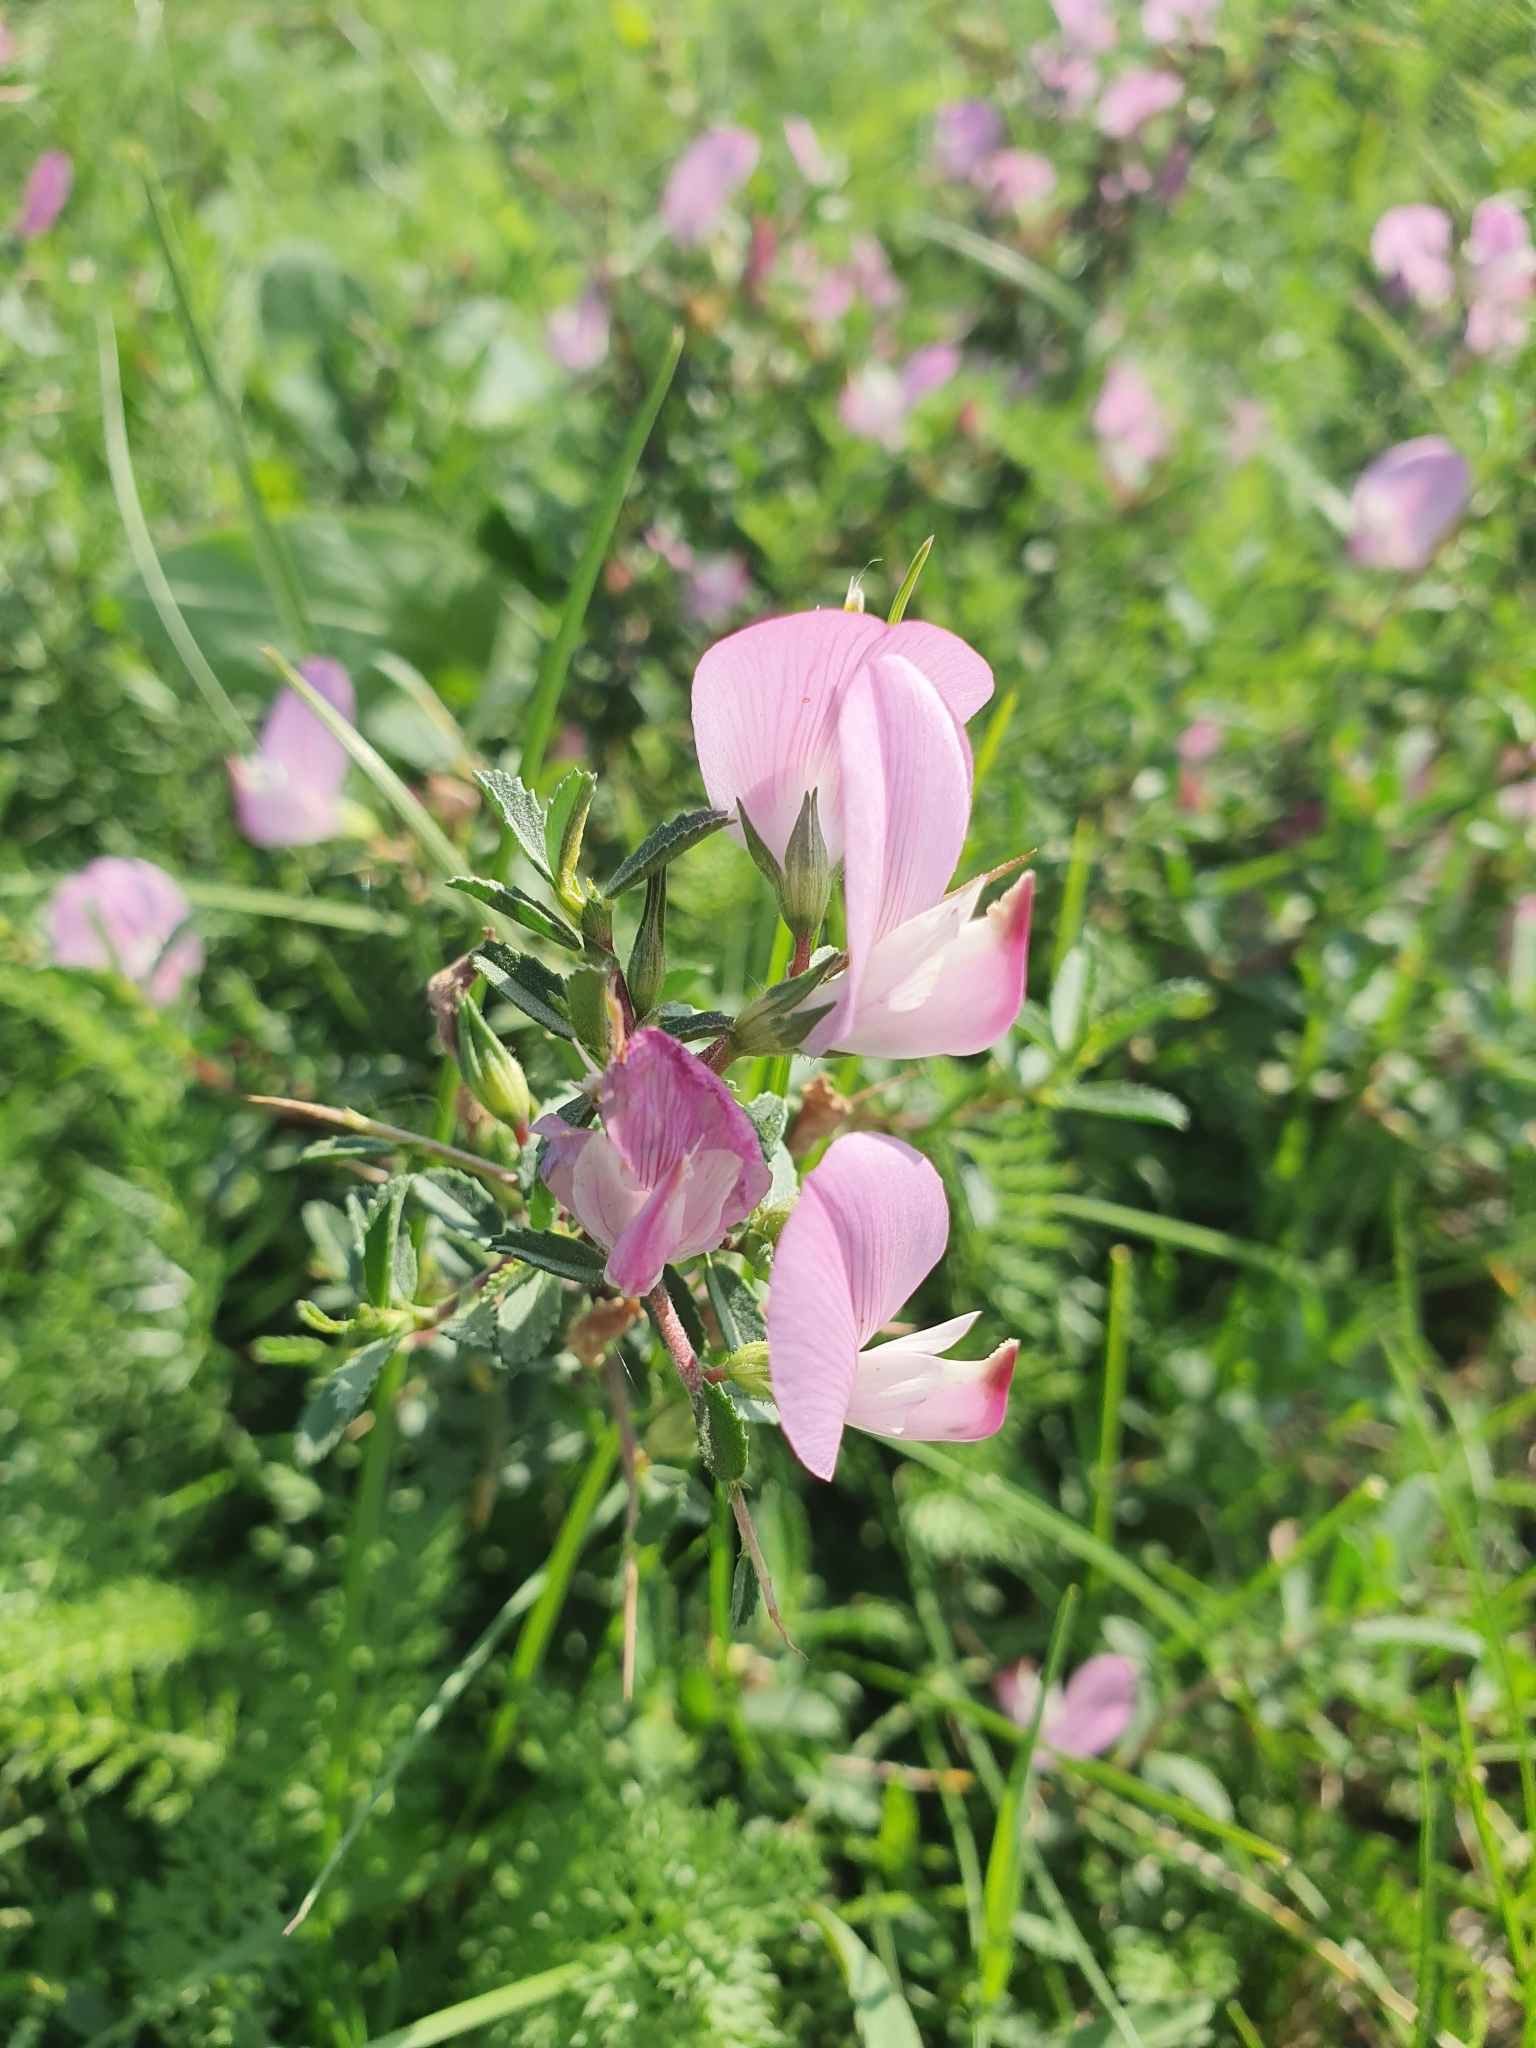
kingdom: Plantae
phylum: Tracheophyta
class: Magnoliopsida
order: Fabales
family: Fabaceae
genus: Ononis
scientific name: Ononis spinosa
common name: Spiny restharrow
